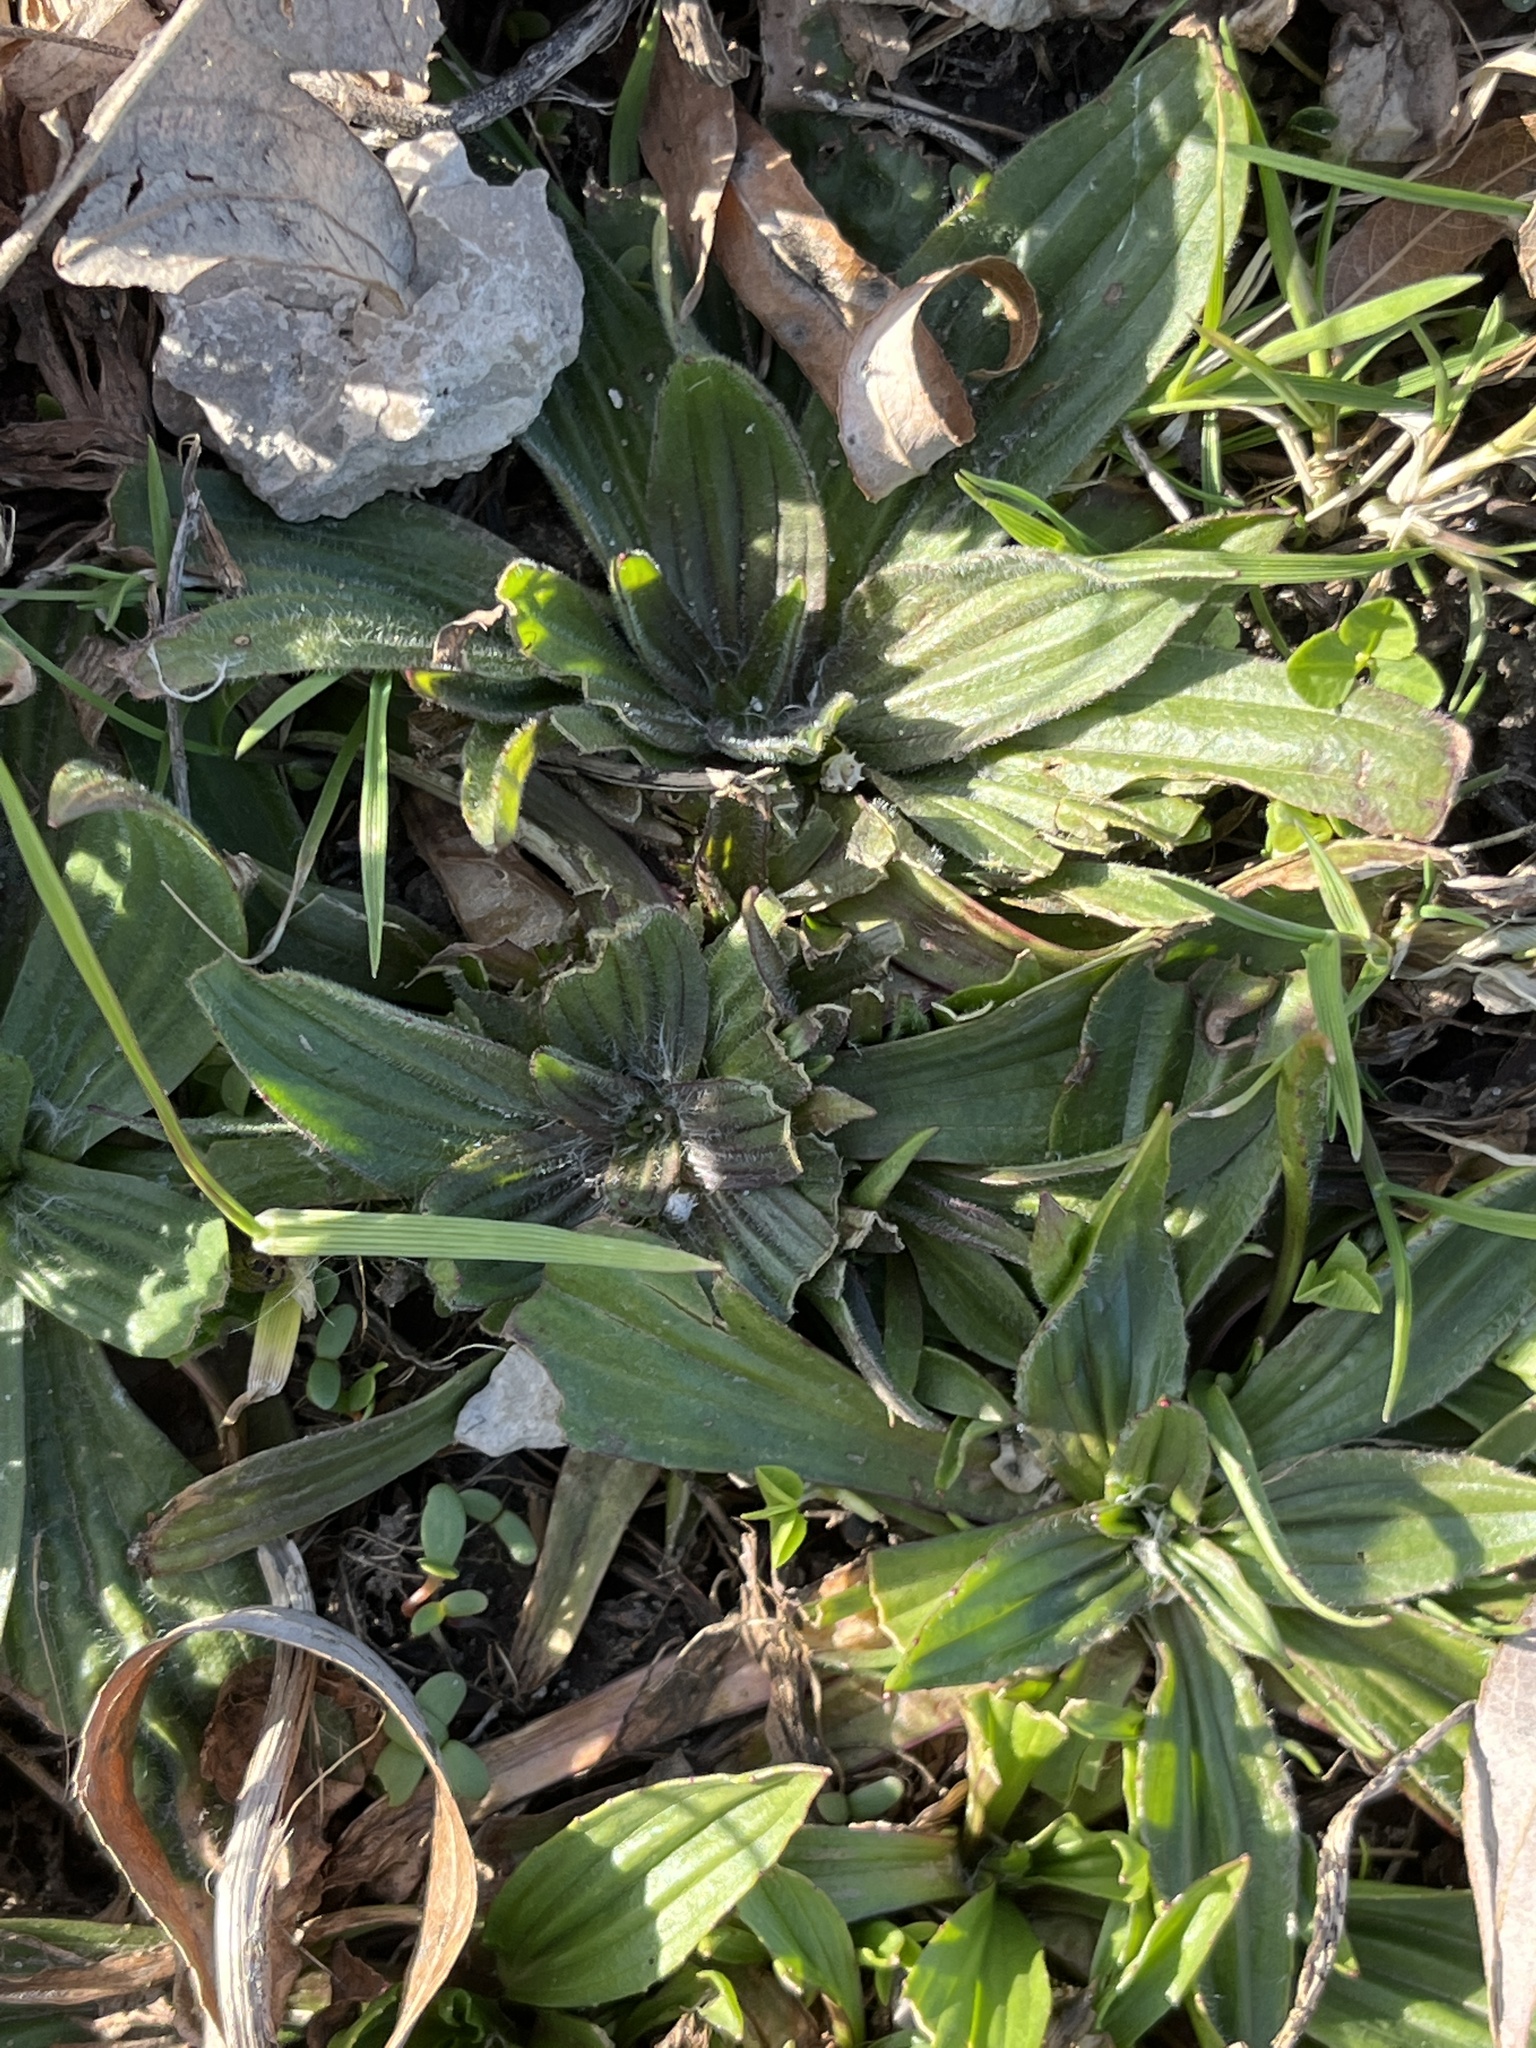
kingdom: Plantae
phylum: Tracheophyta
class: Magnoliopsida
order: Lamiales
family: Plantaginaceae
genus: Plantago
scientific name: Plantago lanceolata
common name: Ribwort plantain
